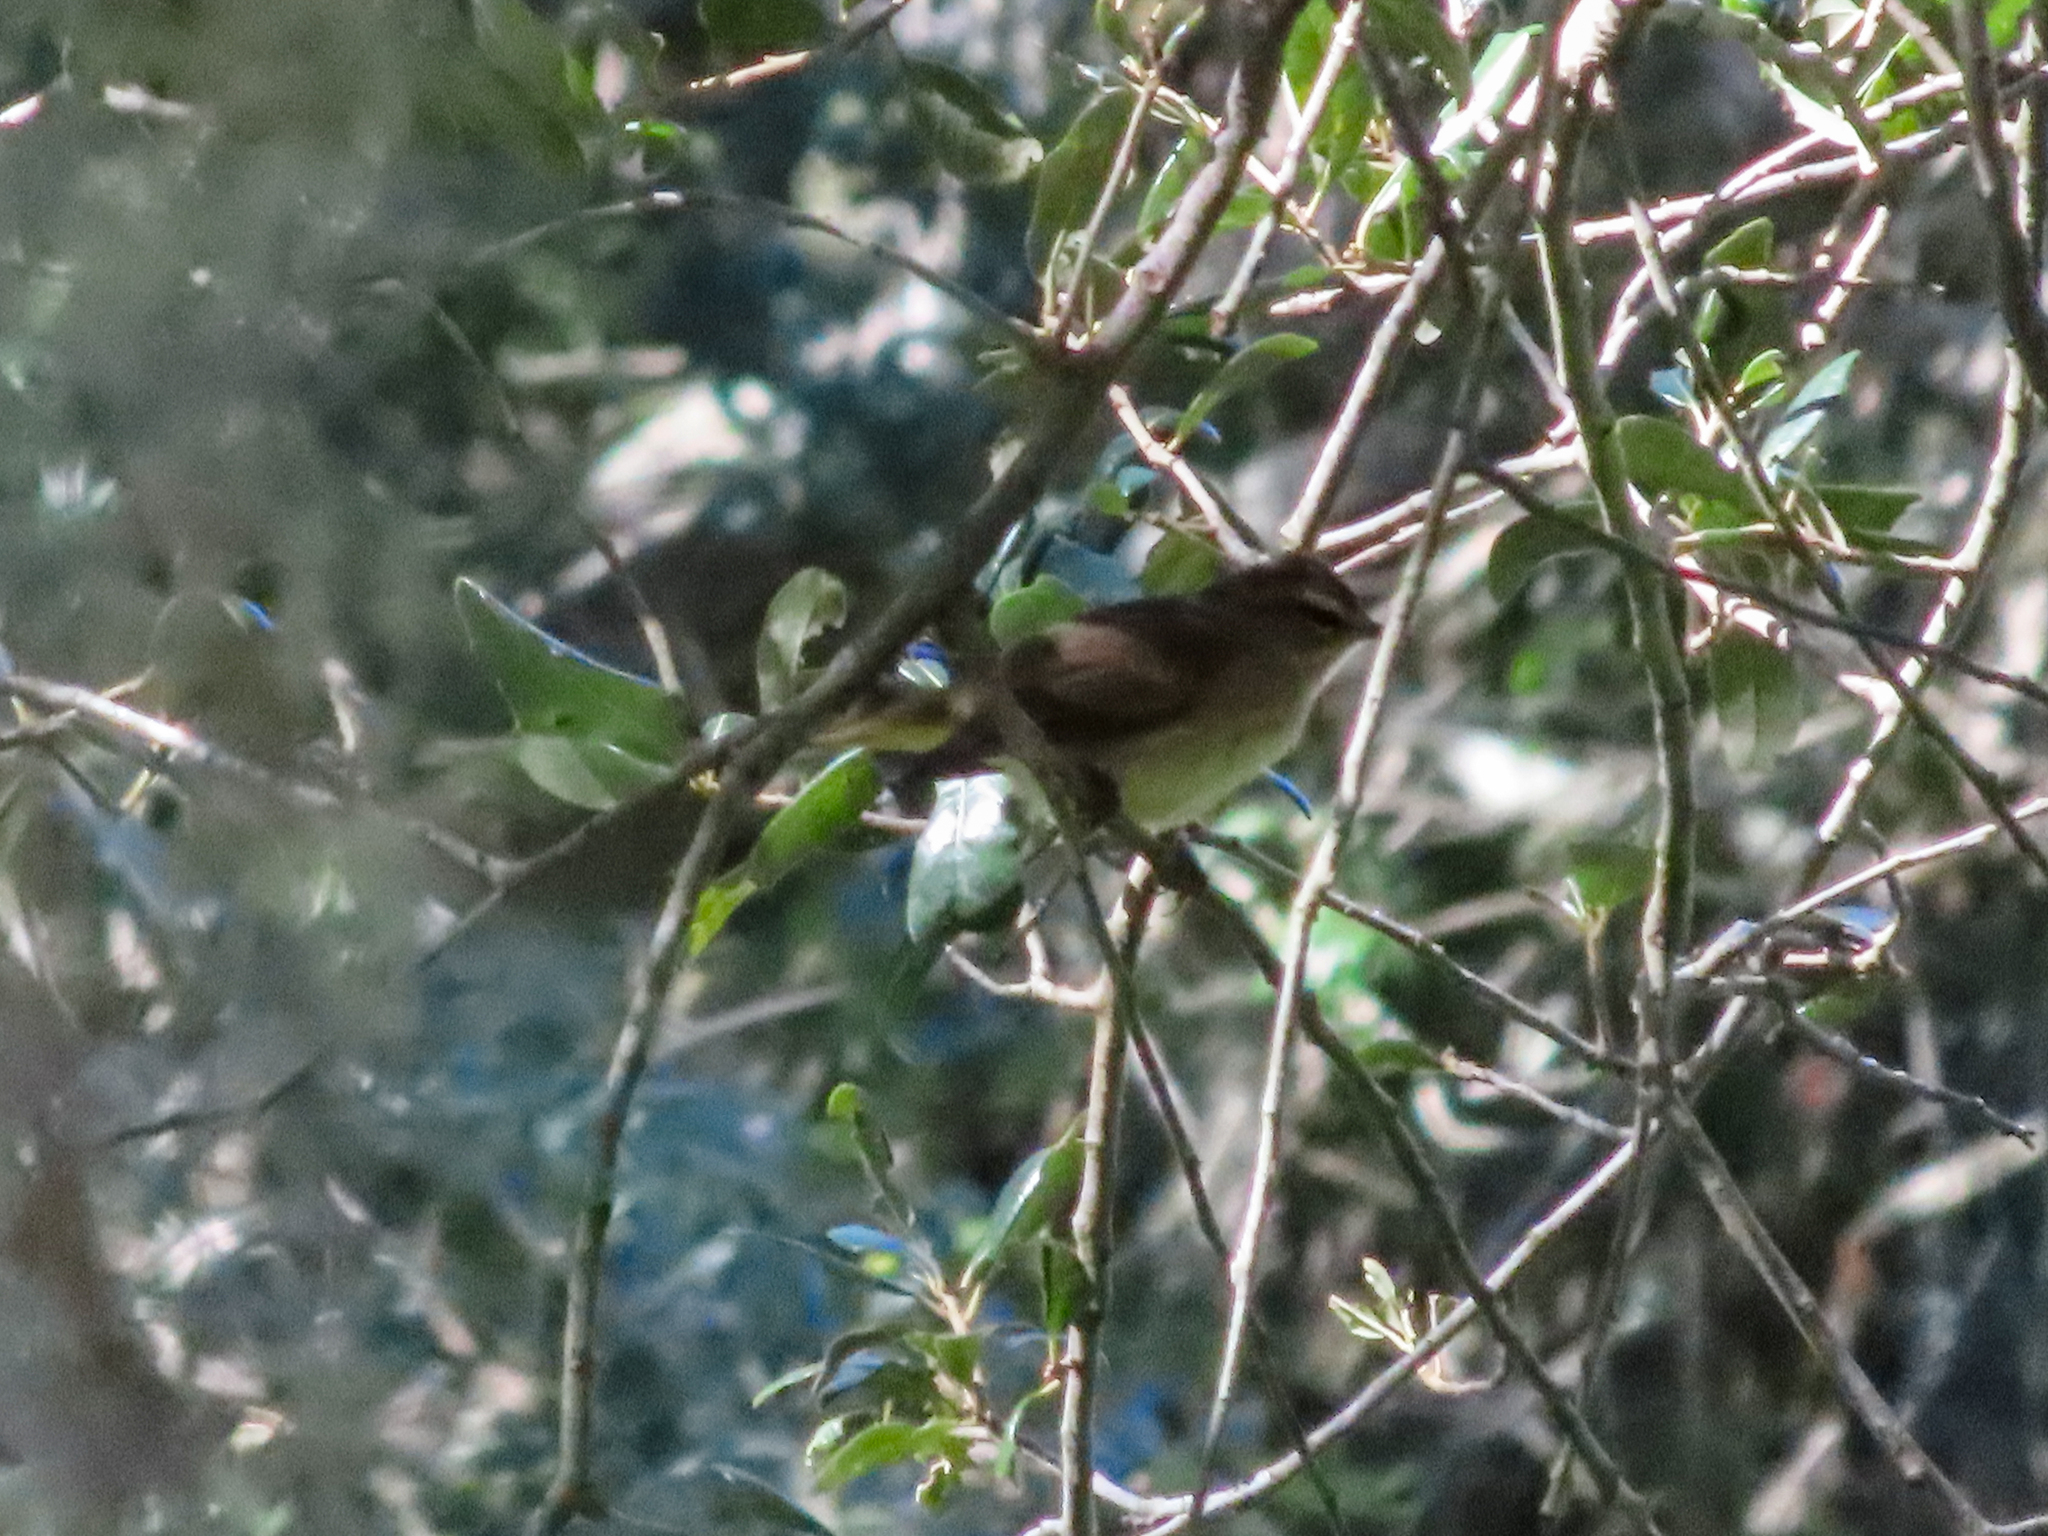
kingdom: Animalia
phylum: Chordata
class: Aves
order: Passeriformes
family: Parulidae
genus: Setophaga
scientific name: Setophaga palmarum
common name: Palm warbler
